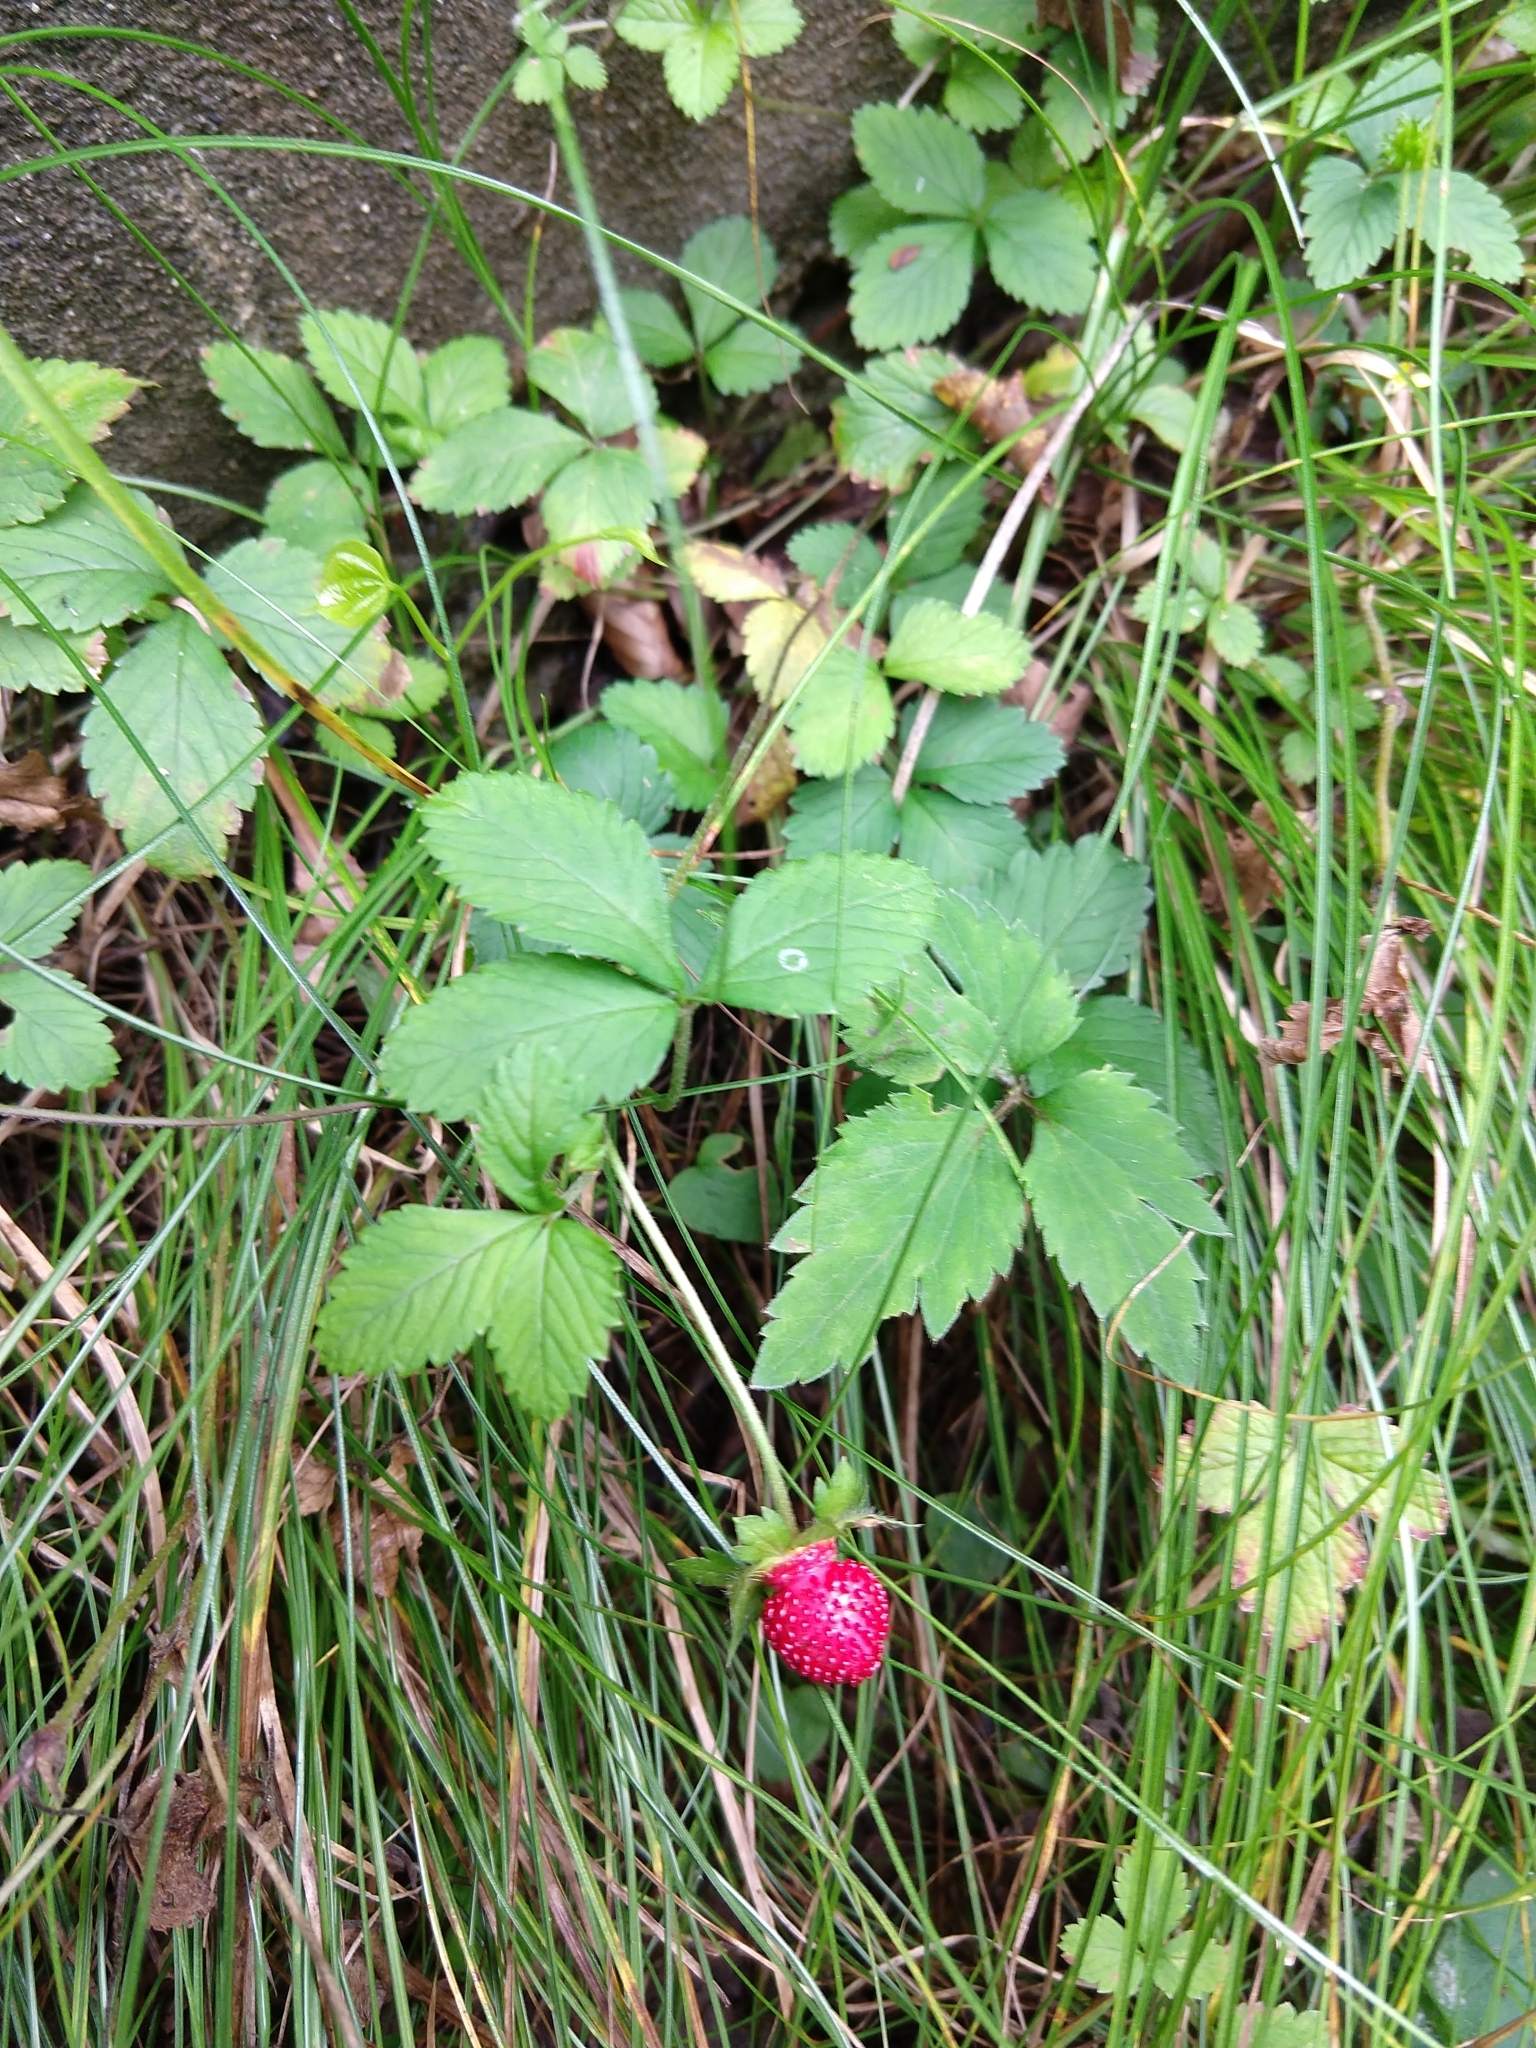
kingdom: Plantae
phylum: Tracheophyta
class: Magnoliopsida
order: Rosales
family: Rosaceae
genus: Potentilla
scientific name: Potentilla indica
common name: Yellow-flowered strawberry
